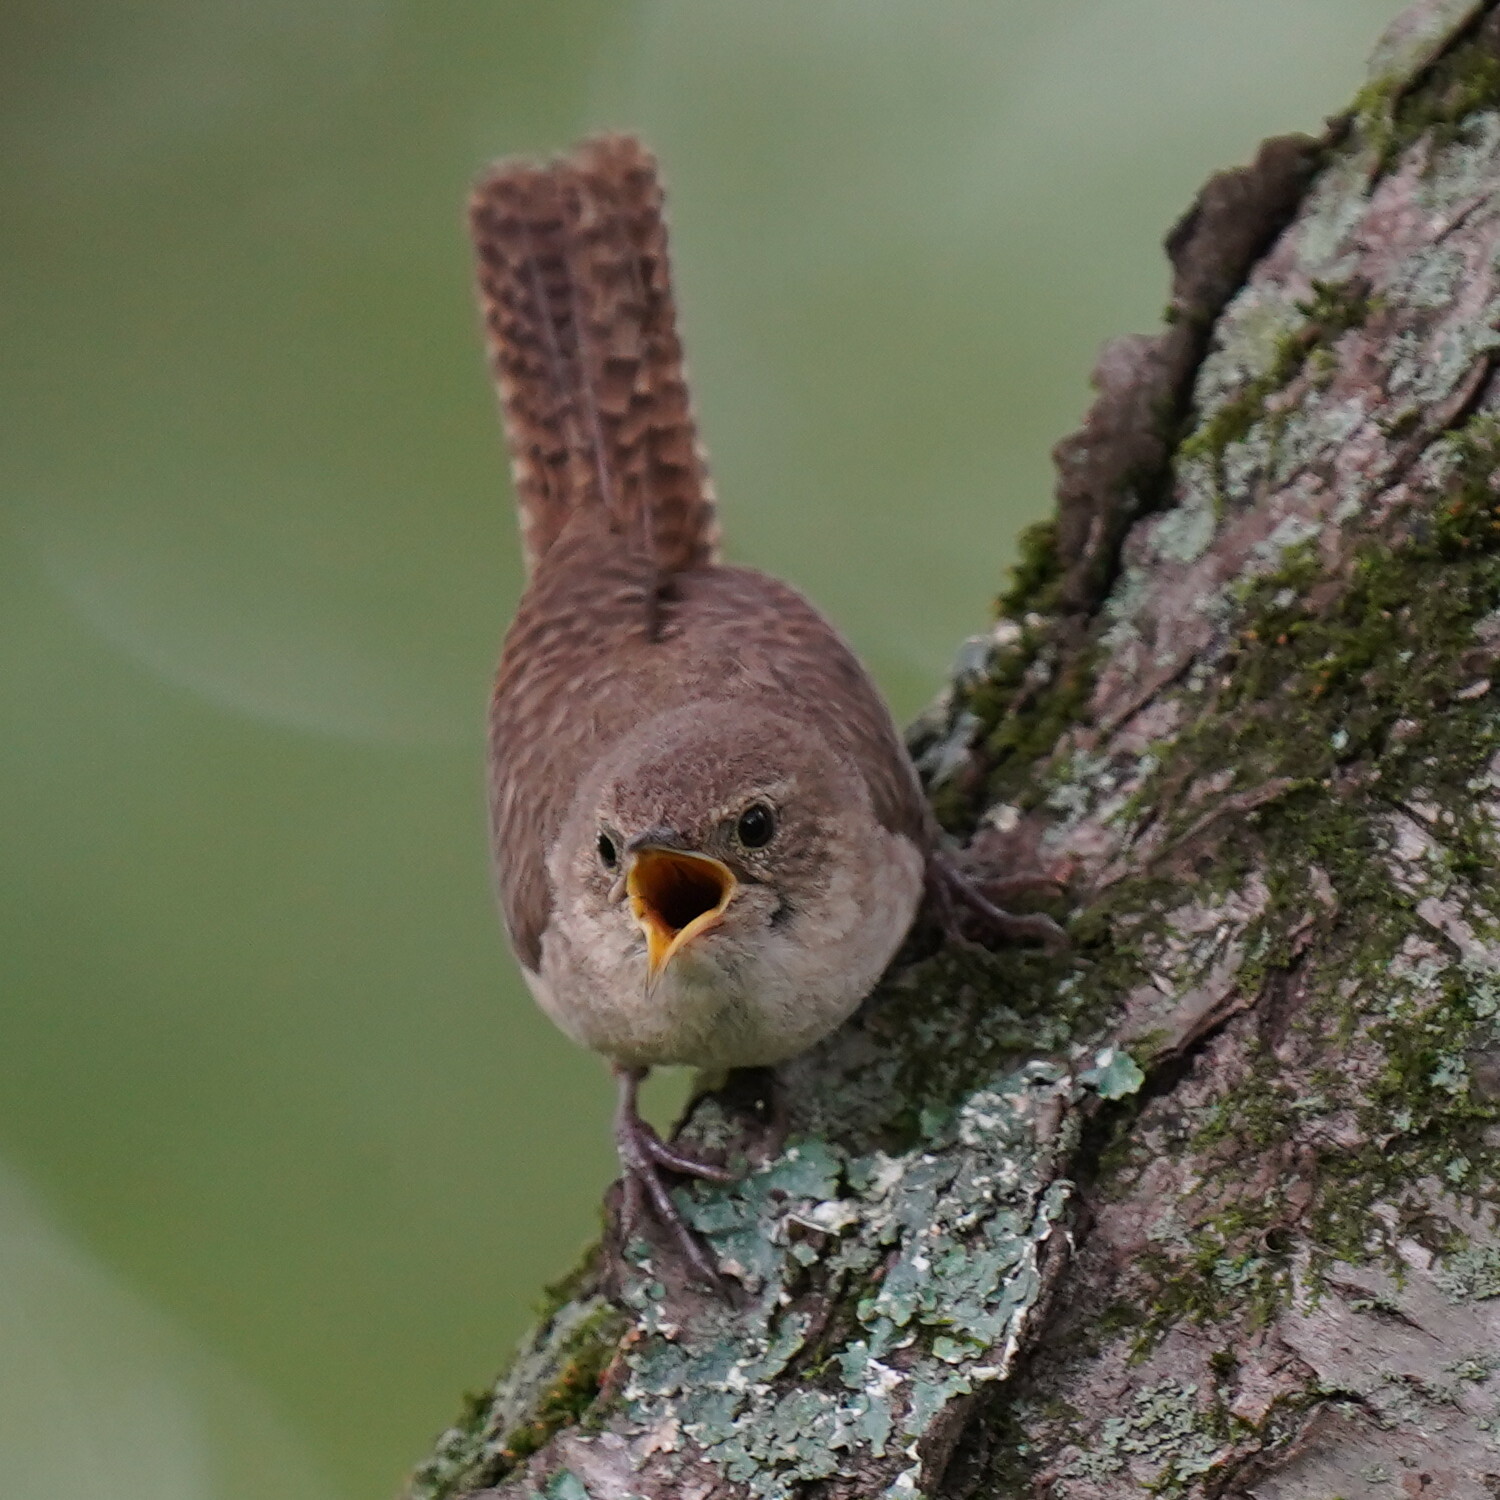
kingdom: Animalia
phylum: Chordata
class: Aves
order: Passeriformes
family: Troglodytidae
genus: Troglodytes
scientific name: Troglodytes aedon
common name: House wren
